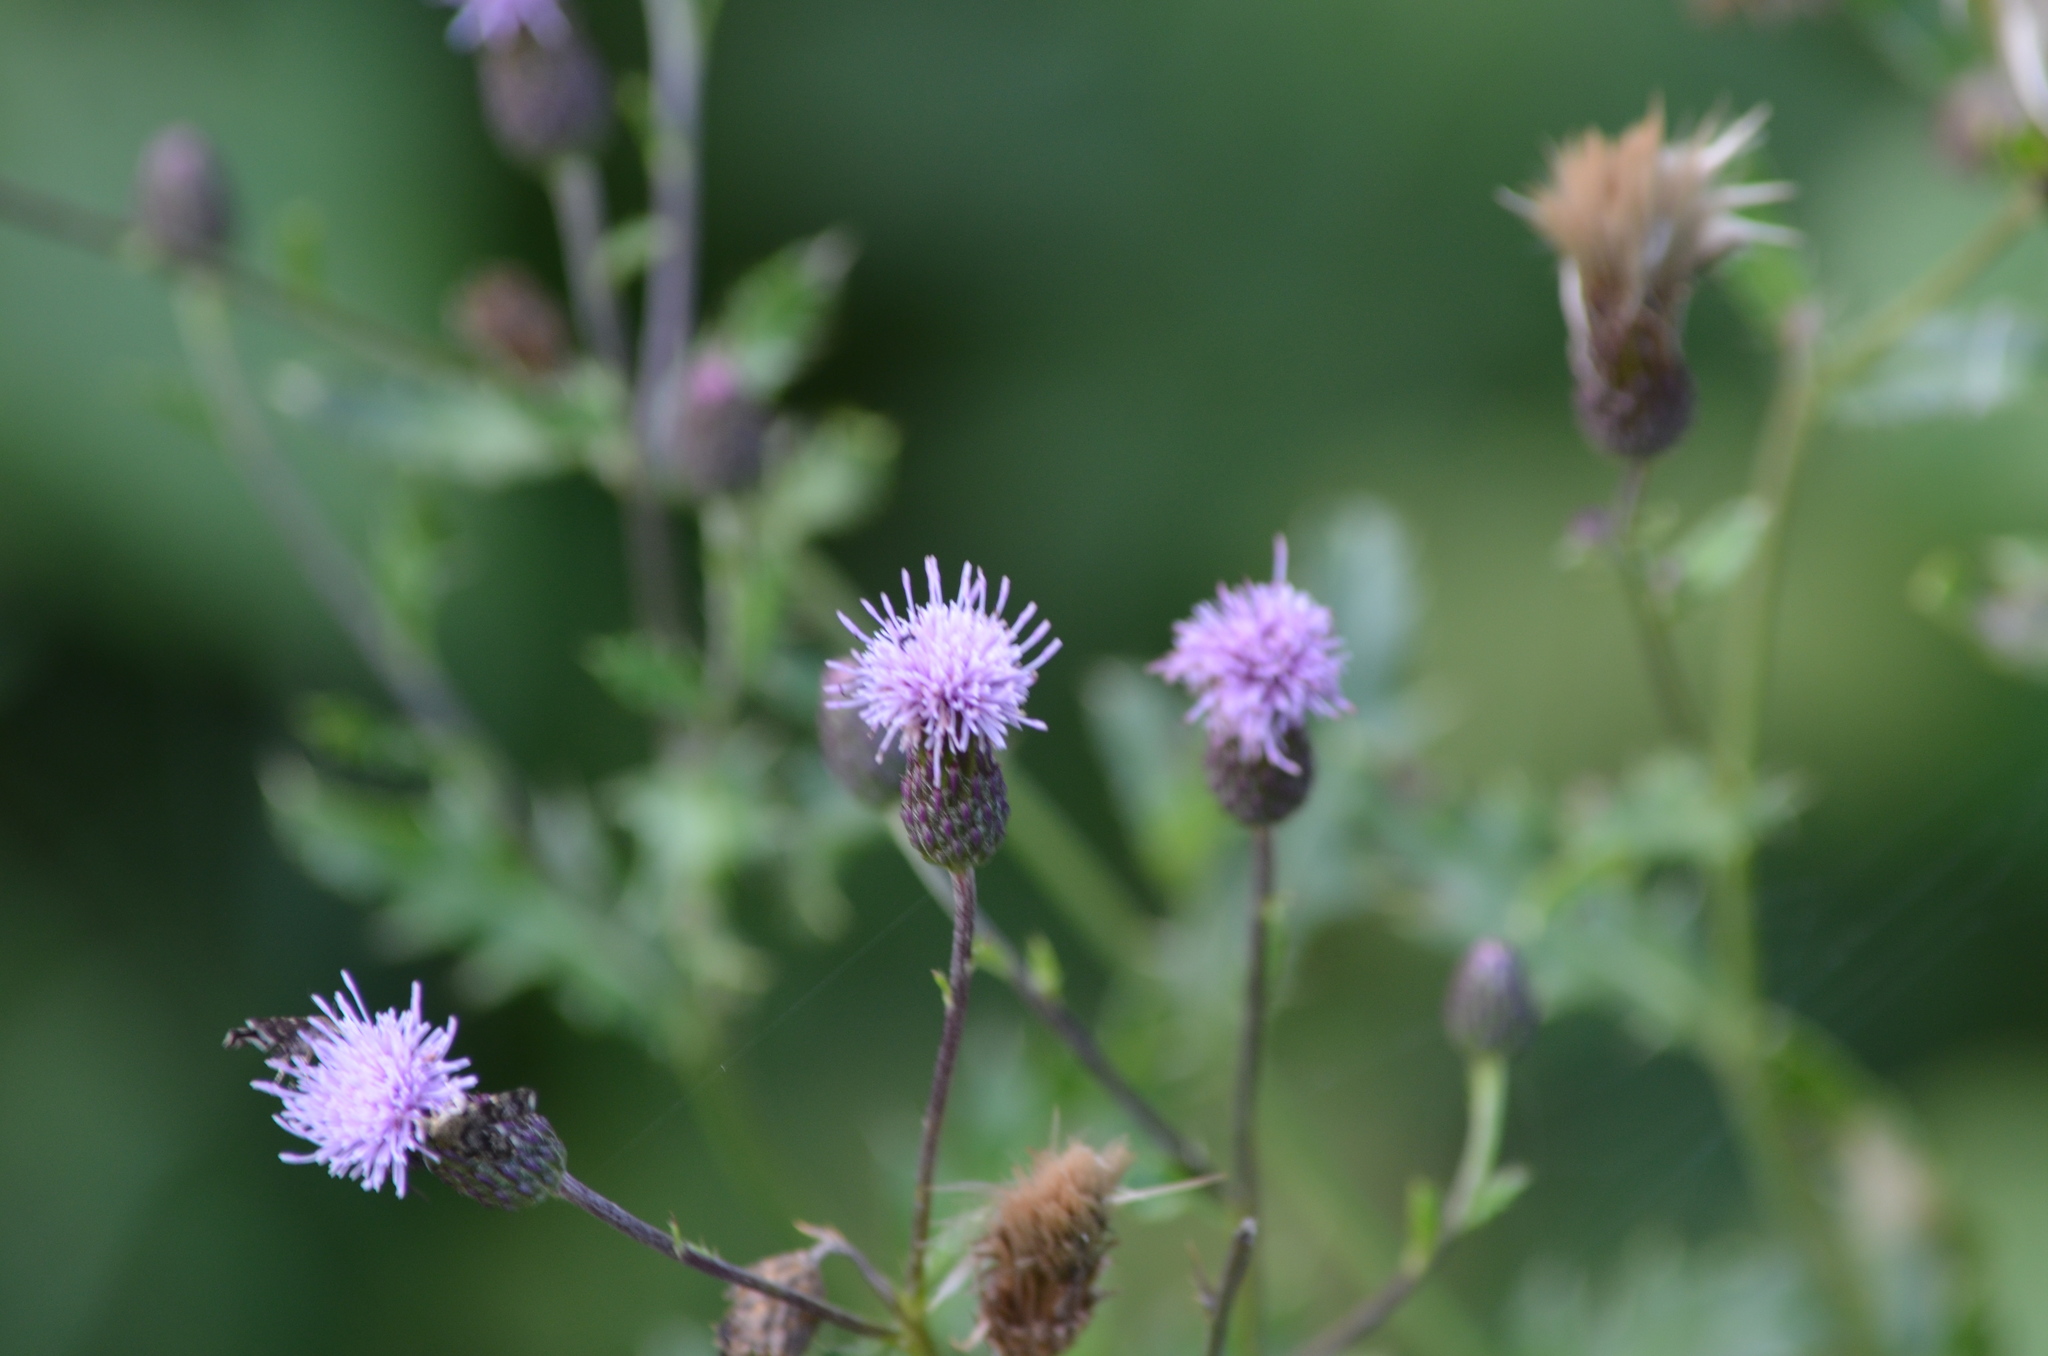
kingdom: Plantae
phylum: Tracheophyta
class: Magnoliopsida
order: Asterales
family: Asteraceae
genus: Cirsium
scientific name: Cirsium arvense
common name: Creeping thistle
